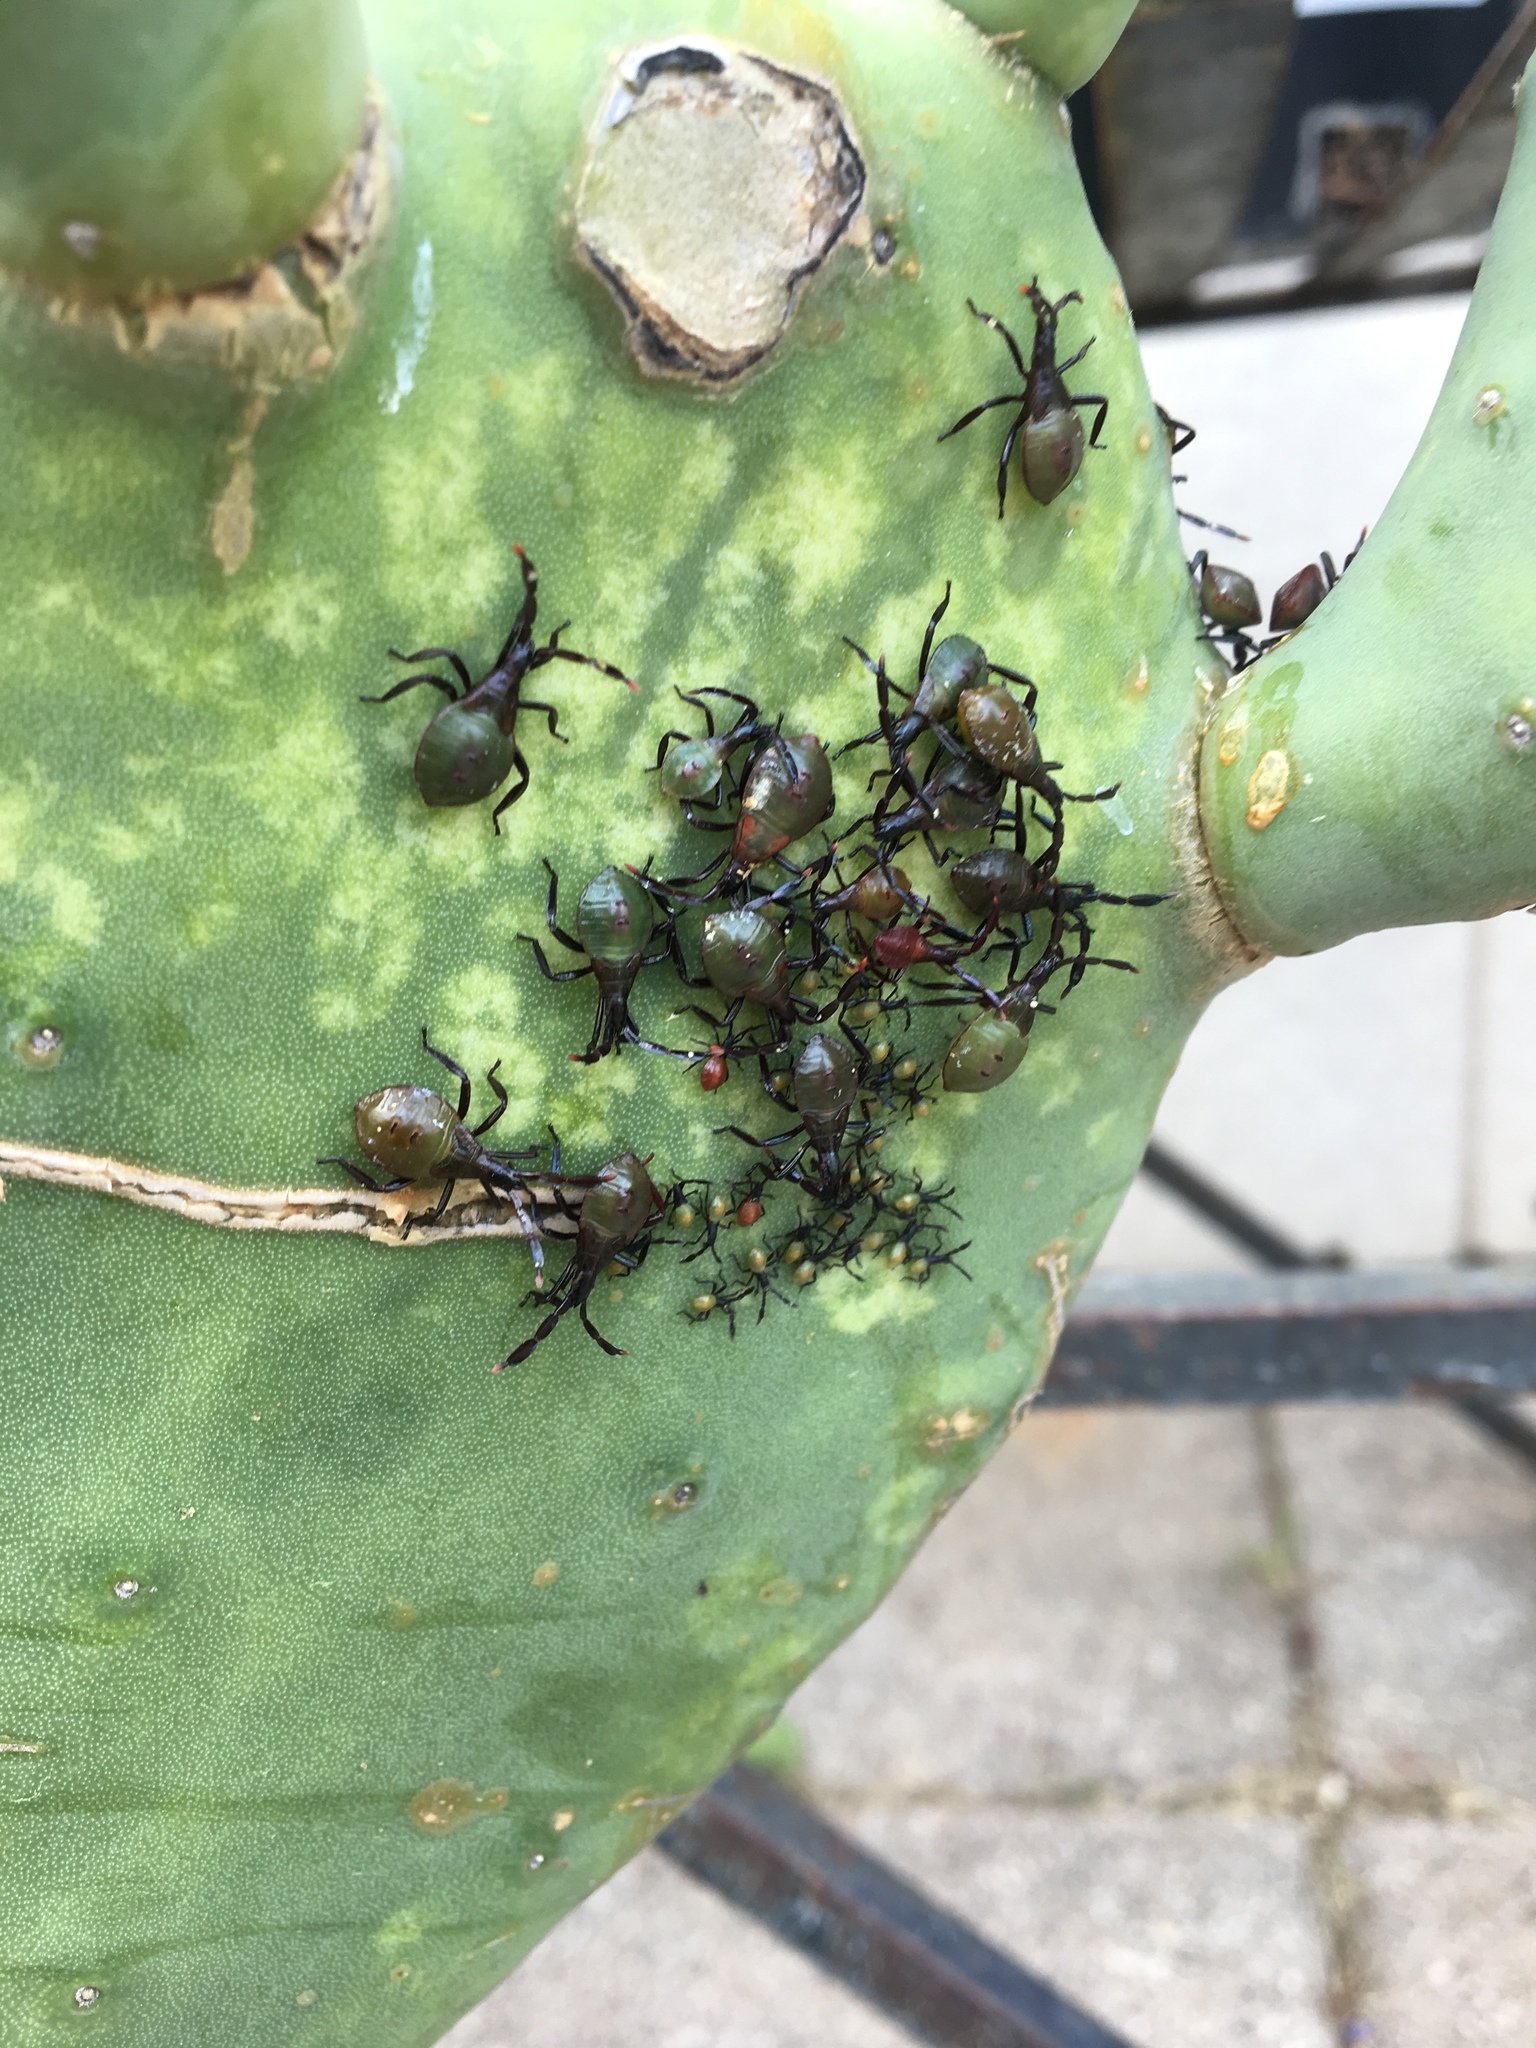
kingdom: Animalia
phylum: Arthropoda
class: Insecta
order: Hemiptera
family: Coreidae
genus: Chelinidea
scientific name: Chelinidea vittiger
